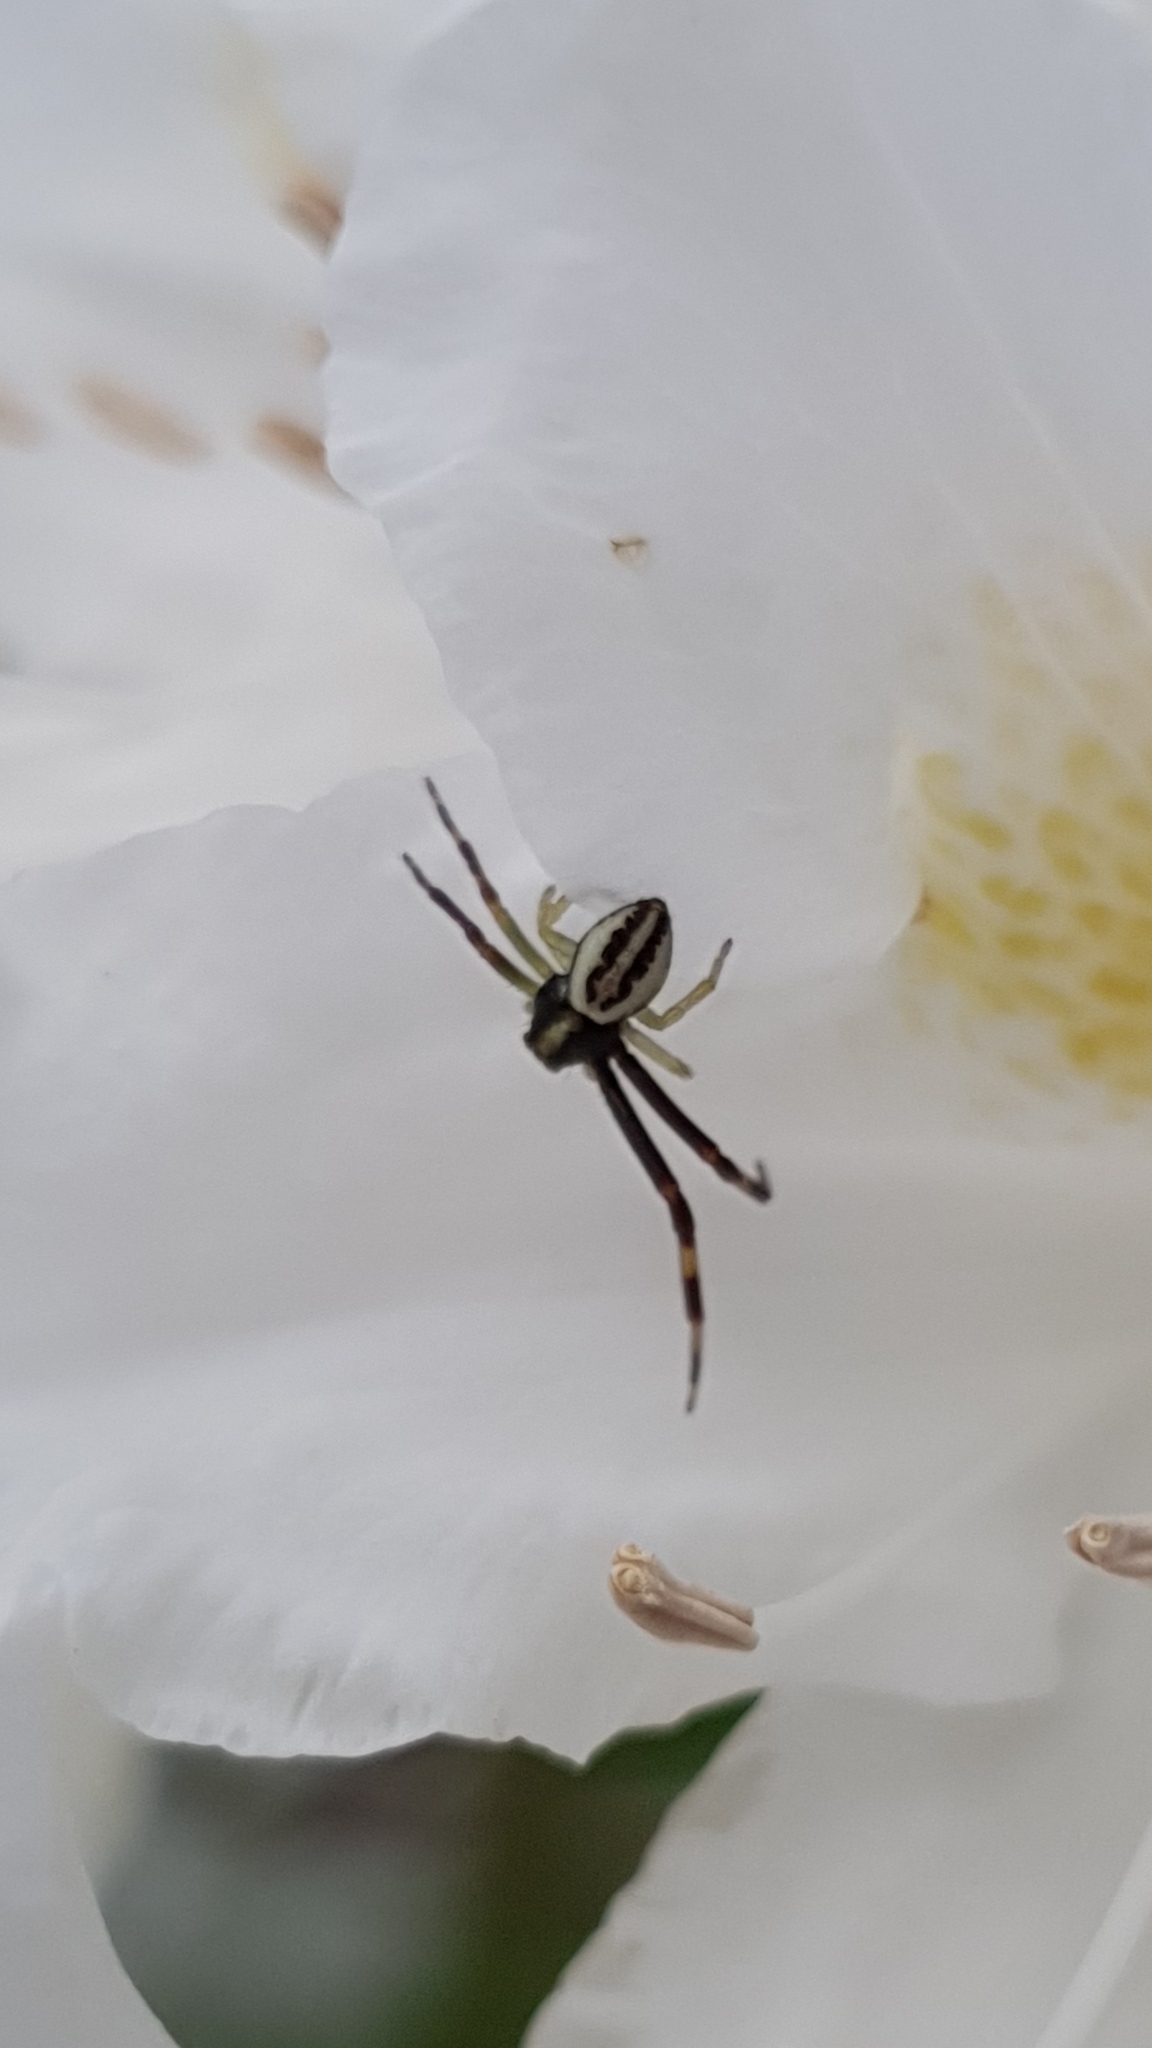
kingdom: Animalia
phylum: Arthropoda
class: Arachnida
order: Araneae
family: Thomisidae
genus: Misumena
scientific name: Misumena vatia
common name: Goldenrod crab spider
